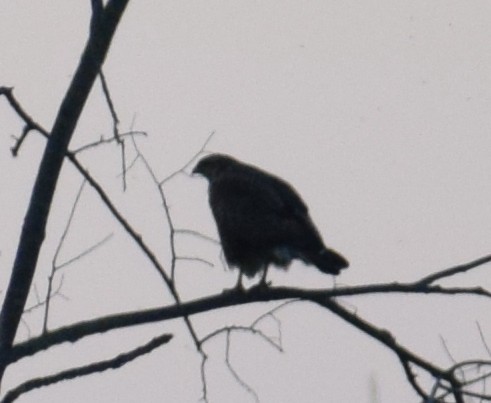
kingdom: Animalia
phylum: Chordata
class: Aves
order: Accipitriformes
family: Accipitridae
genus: Buteo
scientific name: Buteo buteo
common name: Common buzzard
